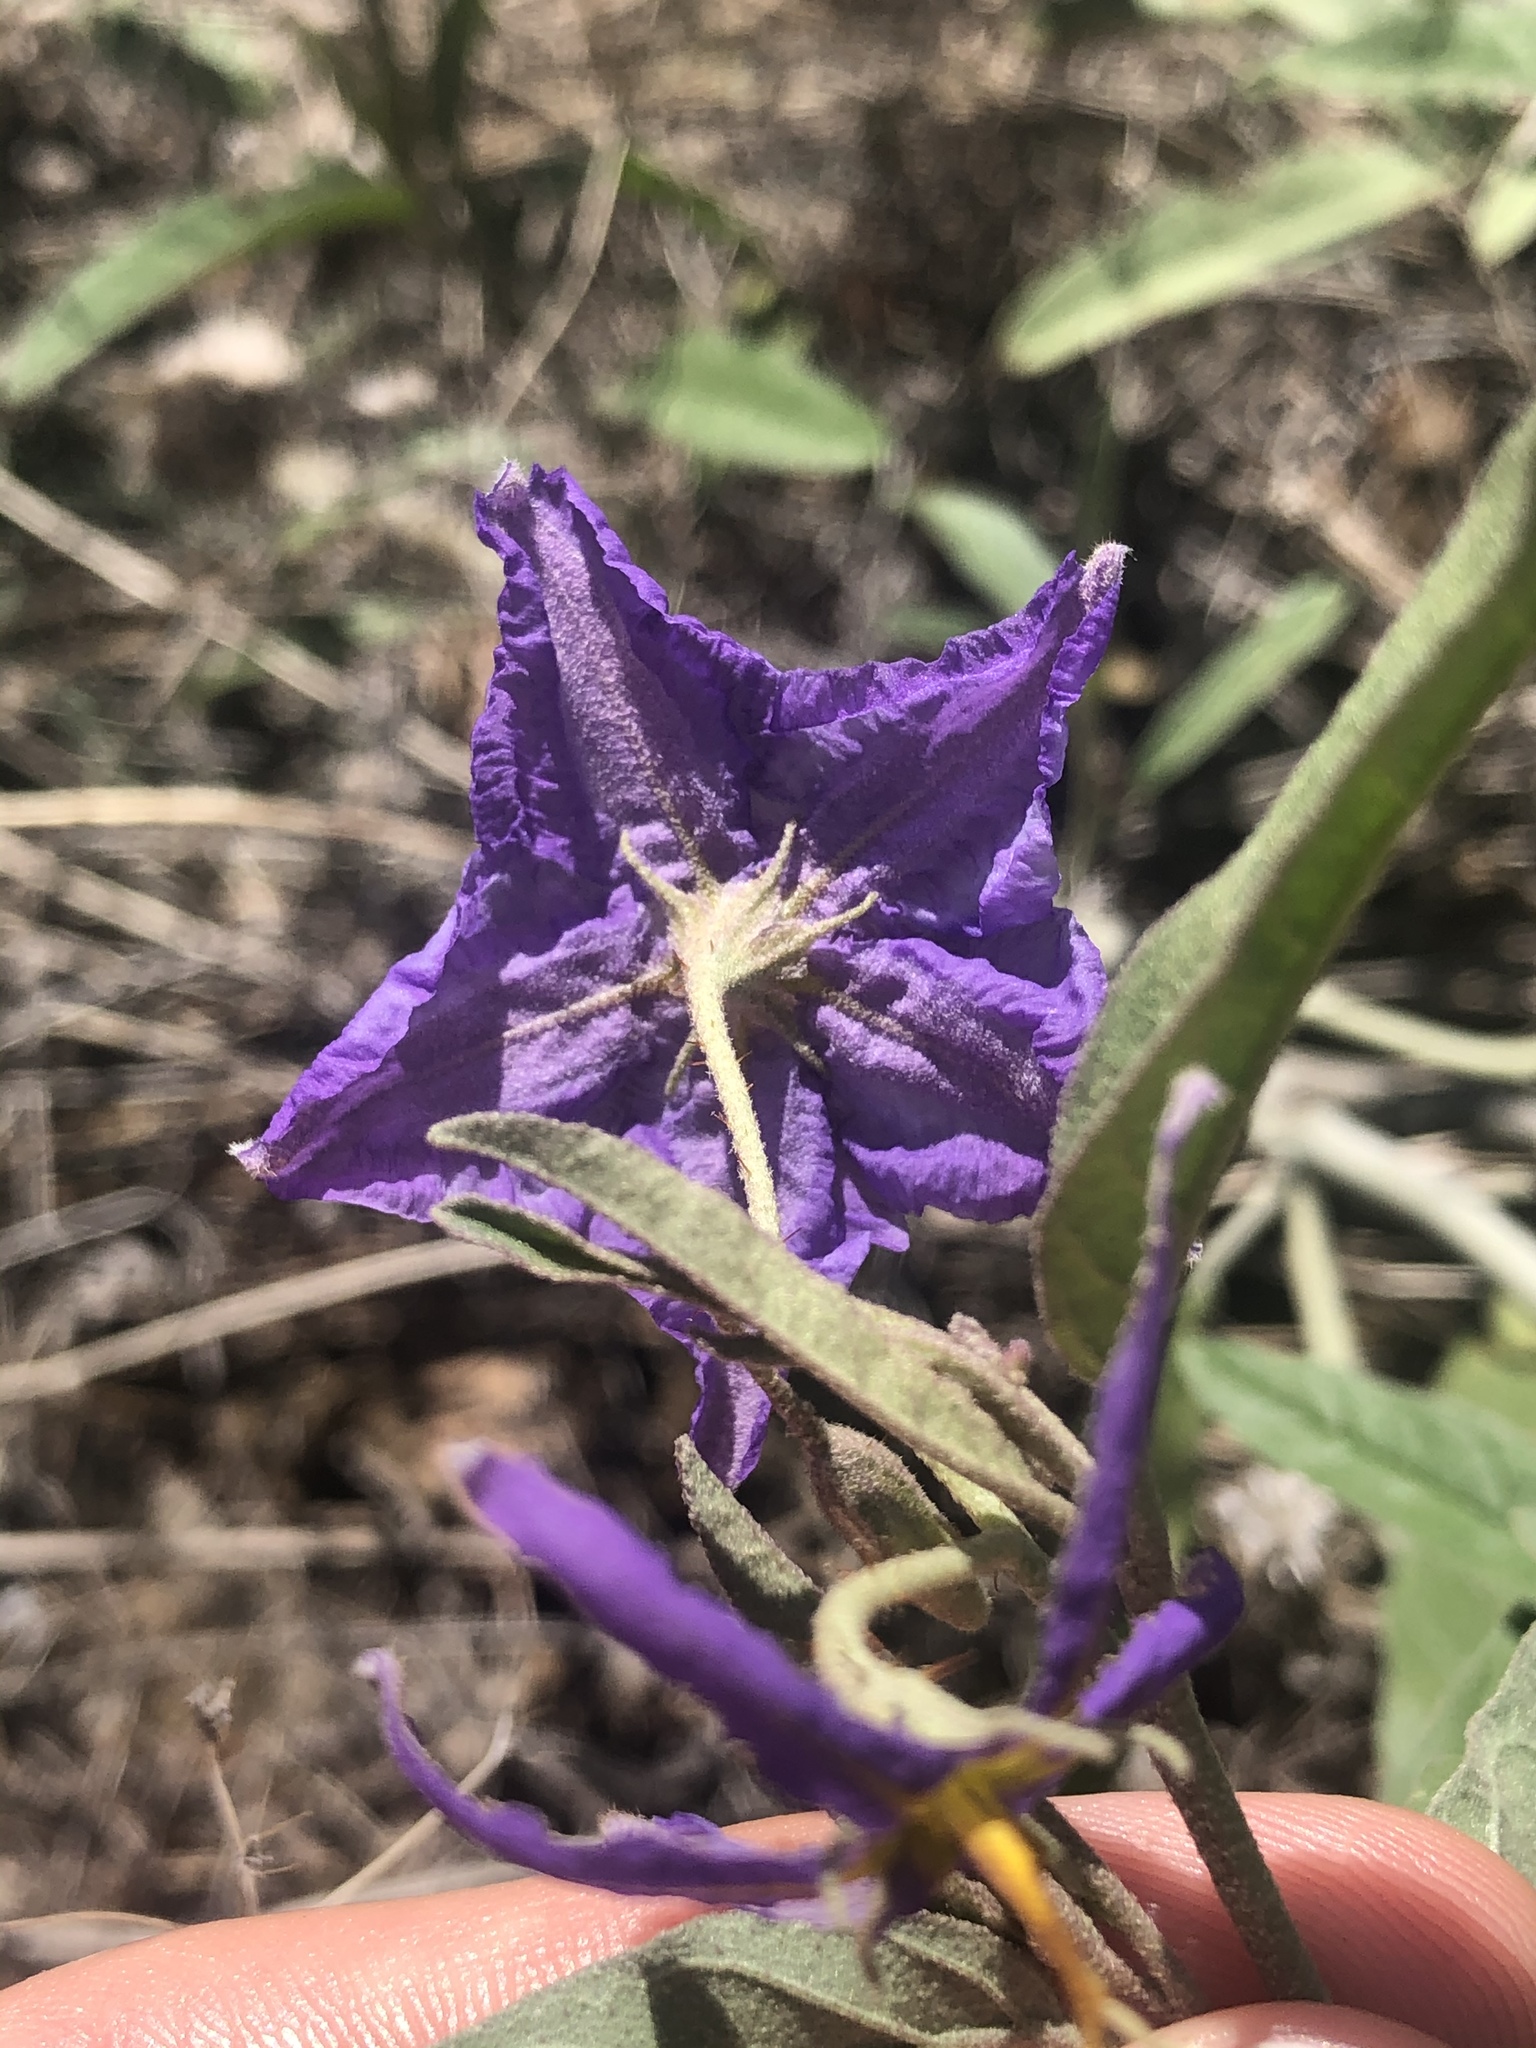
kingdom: Plantae
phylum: Tracheophyta
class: Magnoliopsida
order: Solanales
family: Solanaceae
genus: Solanum
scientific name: Solanum elaeagnifolium
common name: Silverleaf nightshade
